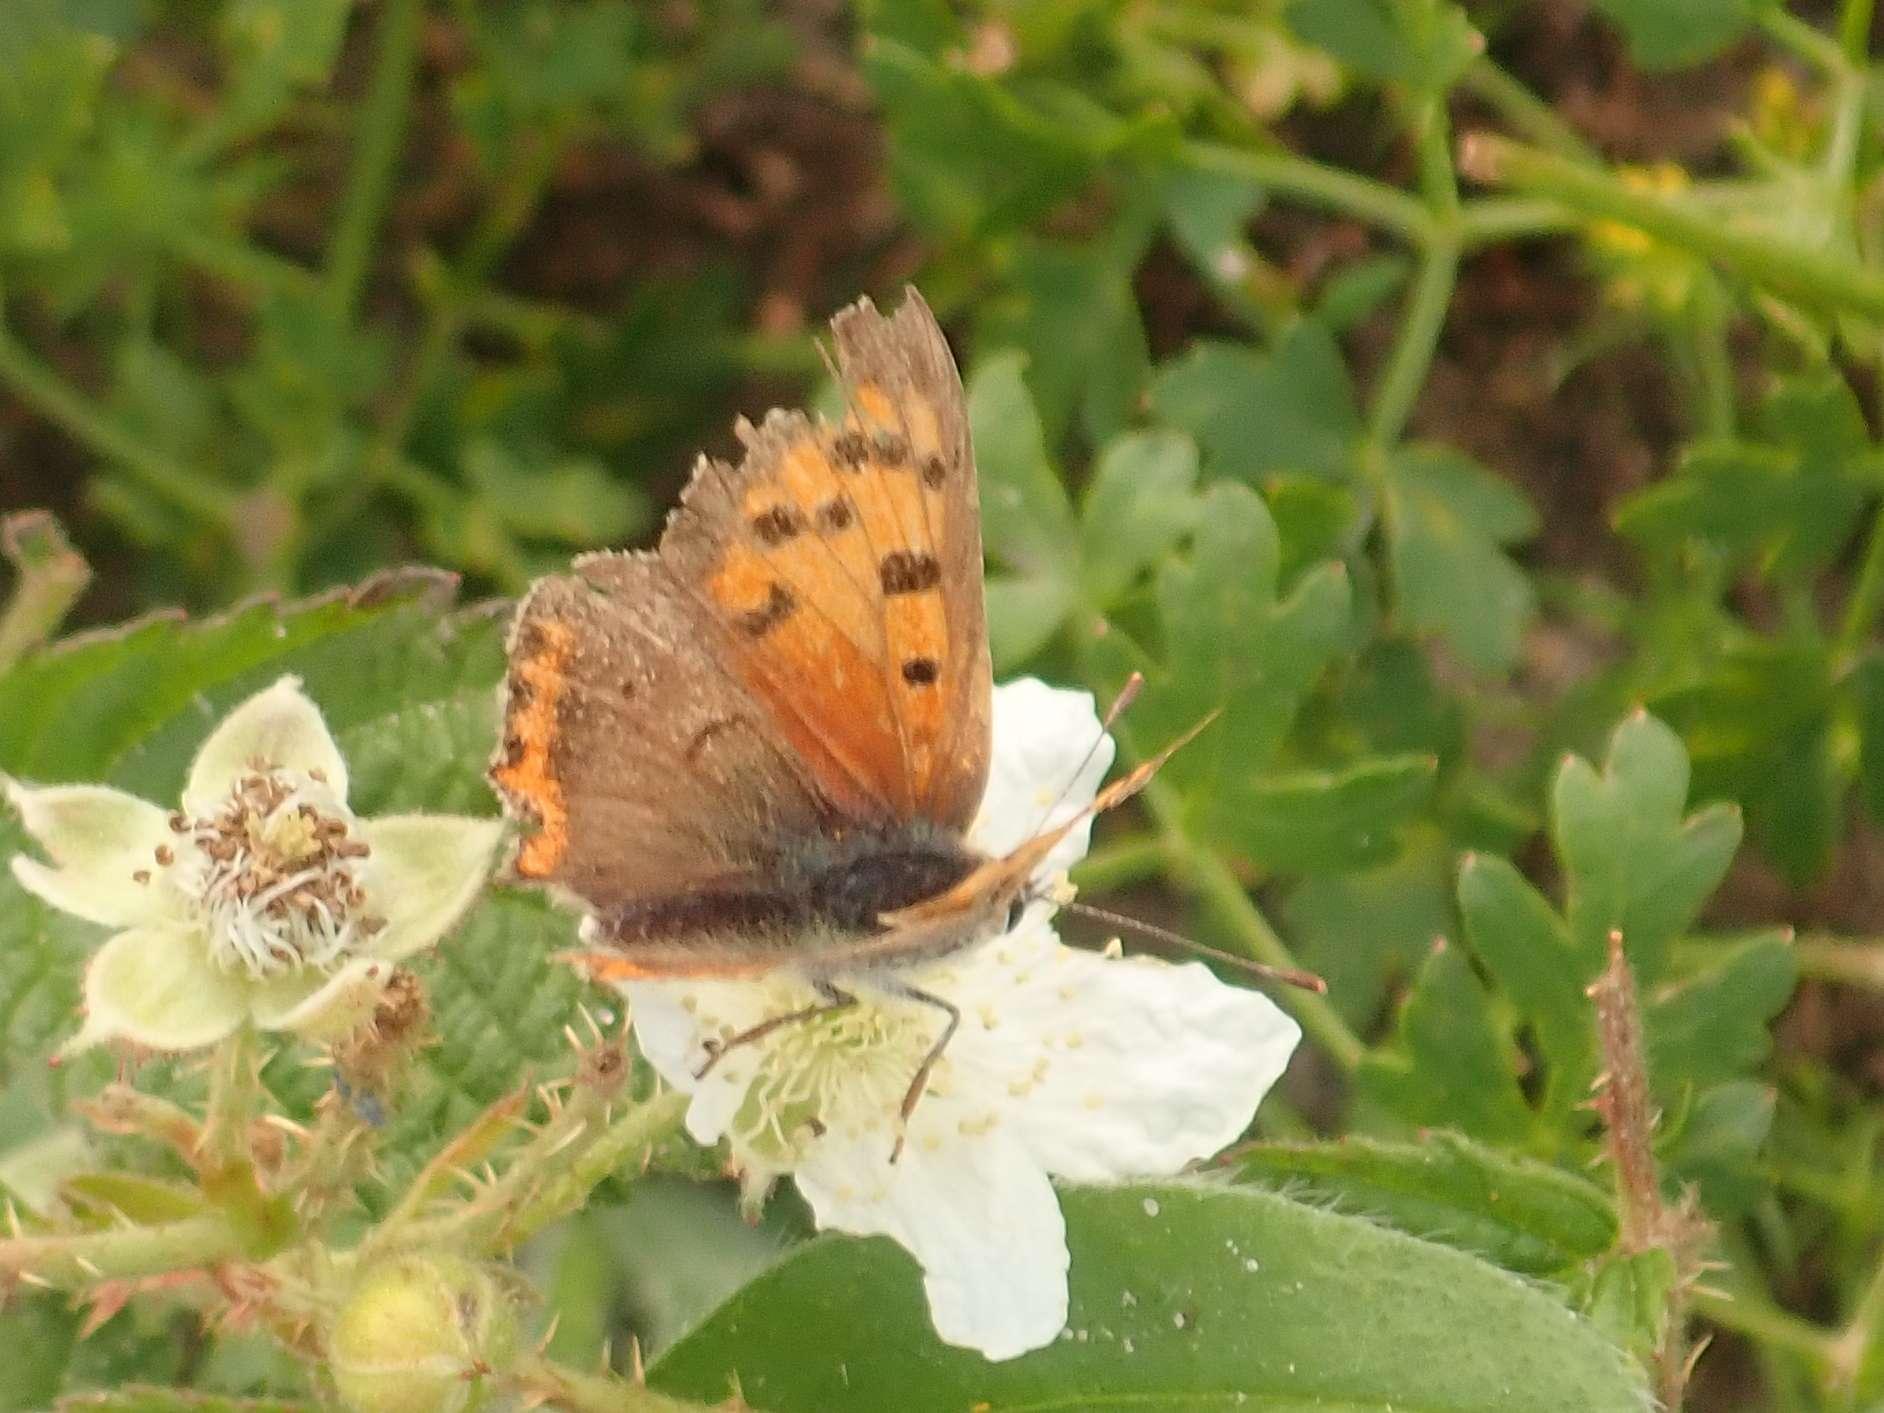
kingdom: Animalia
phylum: Arthropoda
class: Insecta
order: Lepidoptera
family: Lycaenidae
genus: Lycaena
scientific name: Lycaena phlaeas
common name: Small copper
